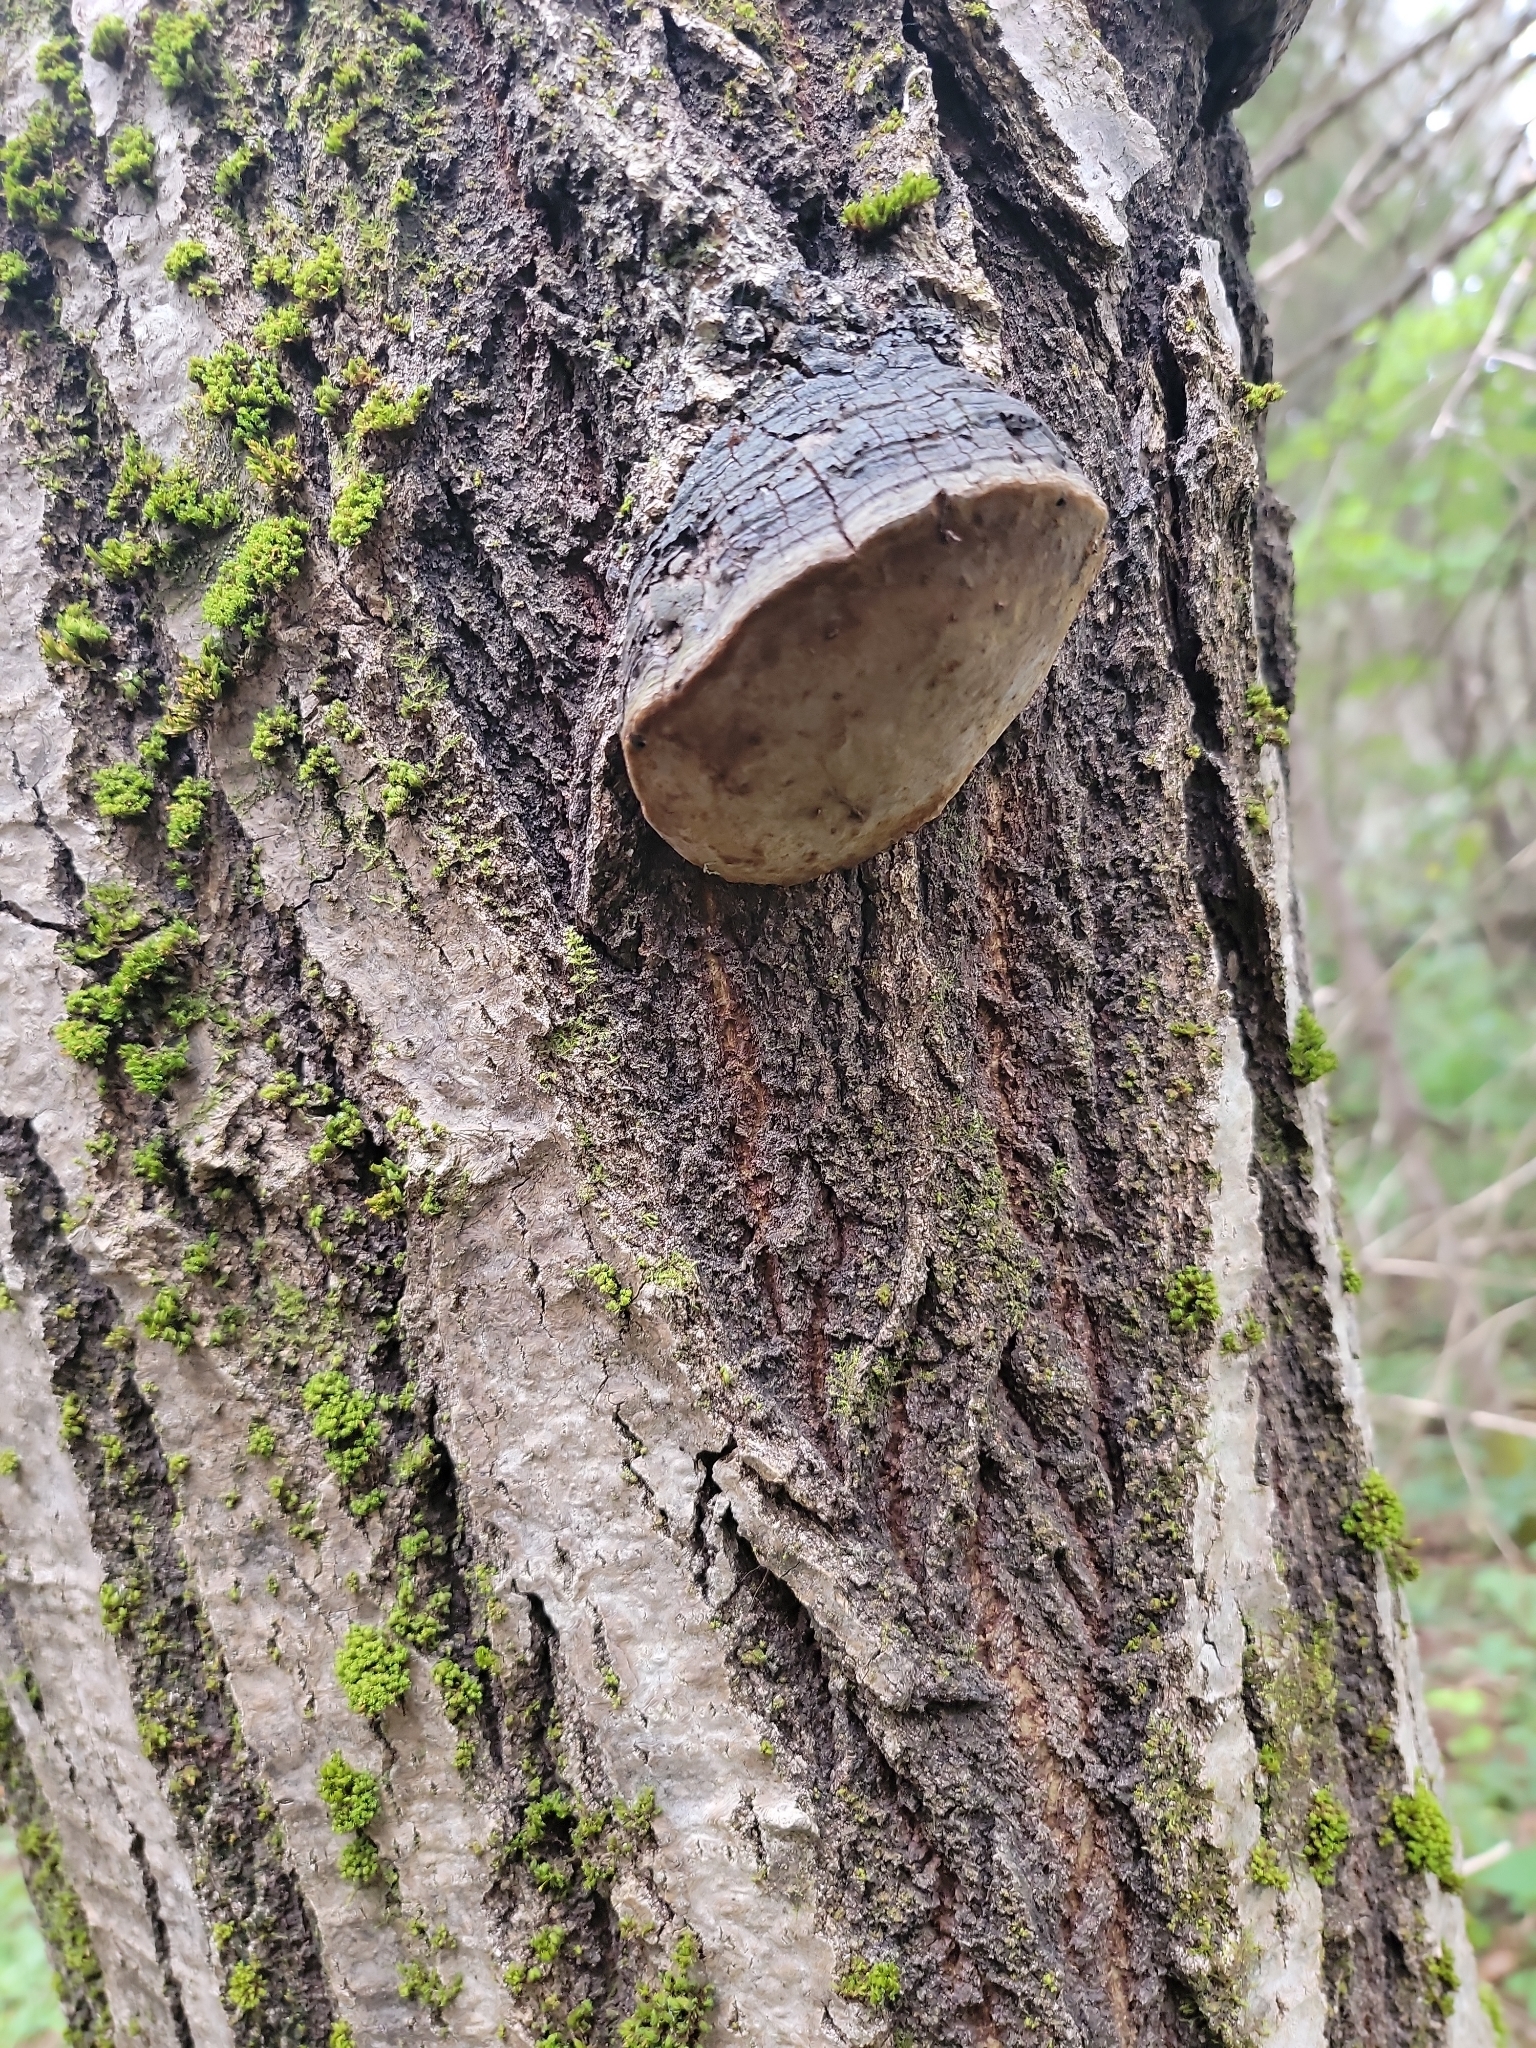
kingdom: Fungi
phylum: Basidiomycota
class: Agaricomycetes
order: Hymenochaetales
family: Hymenochaetaceae
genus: Phellinus
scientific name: Phellinus tremulae
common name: Aspen bracket
